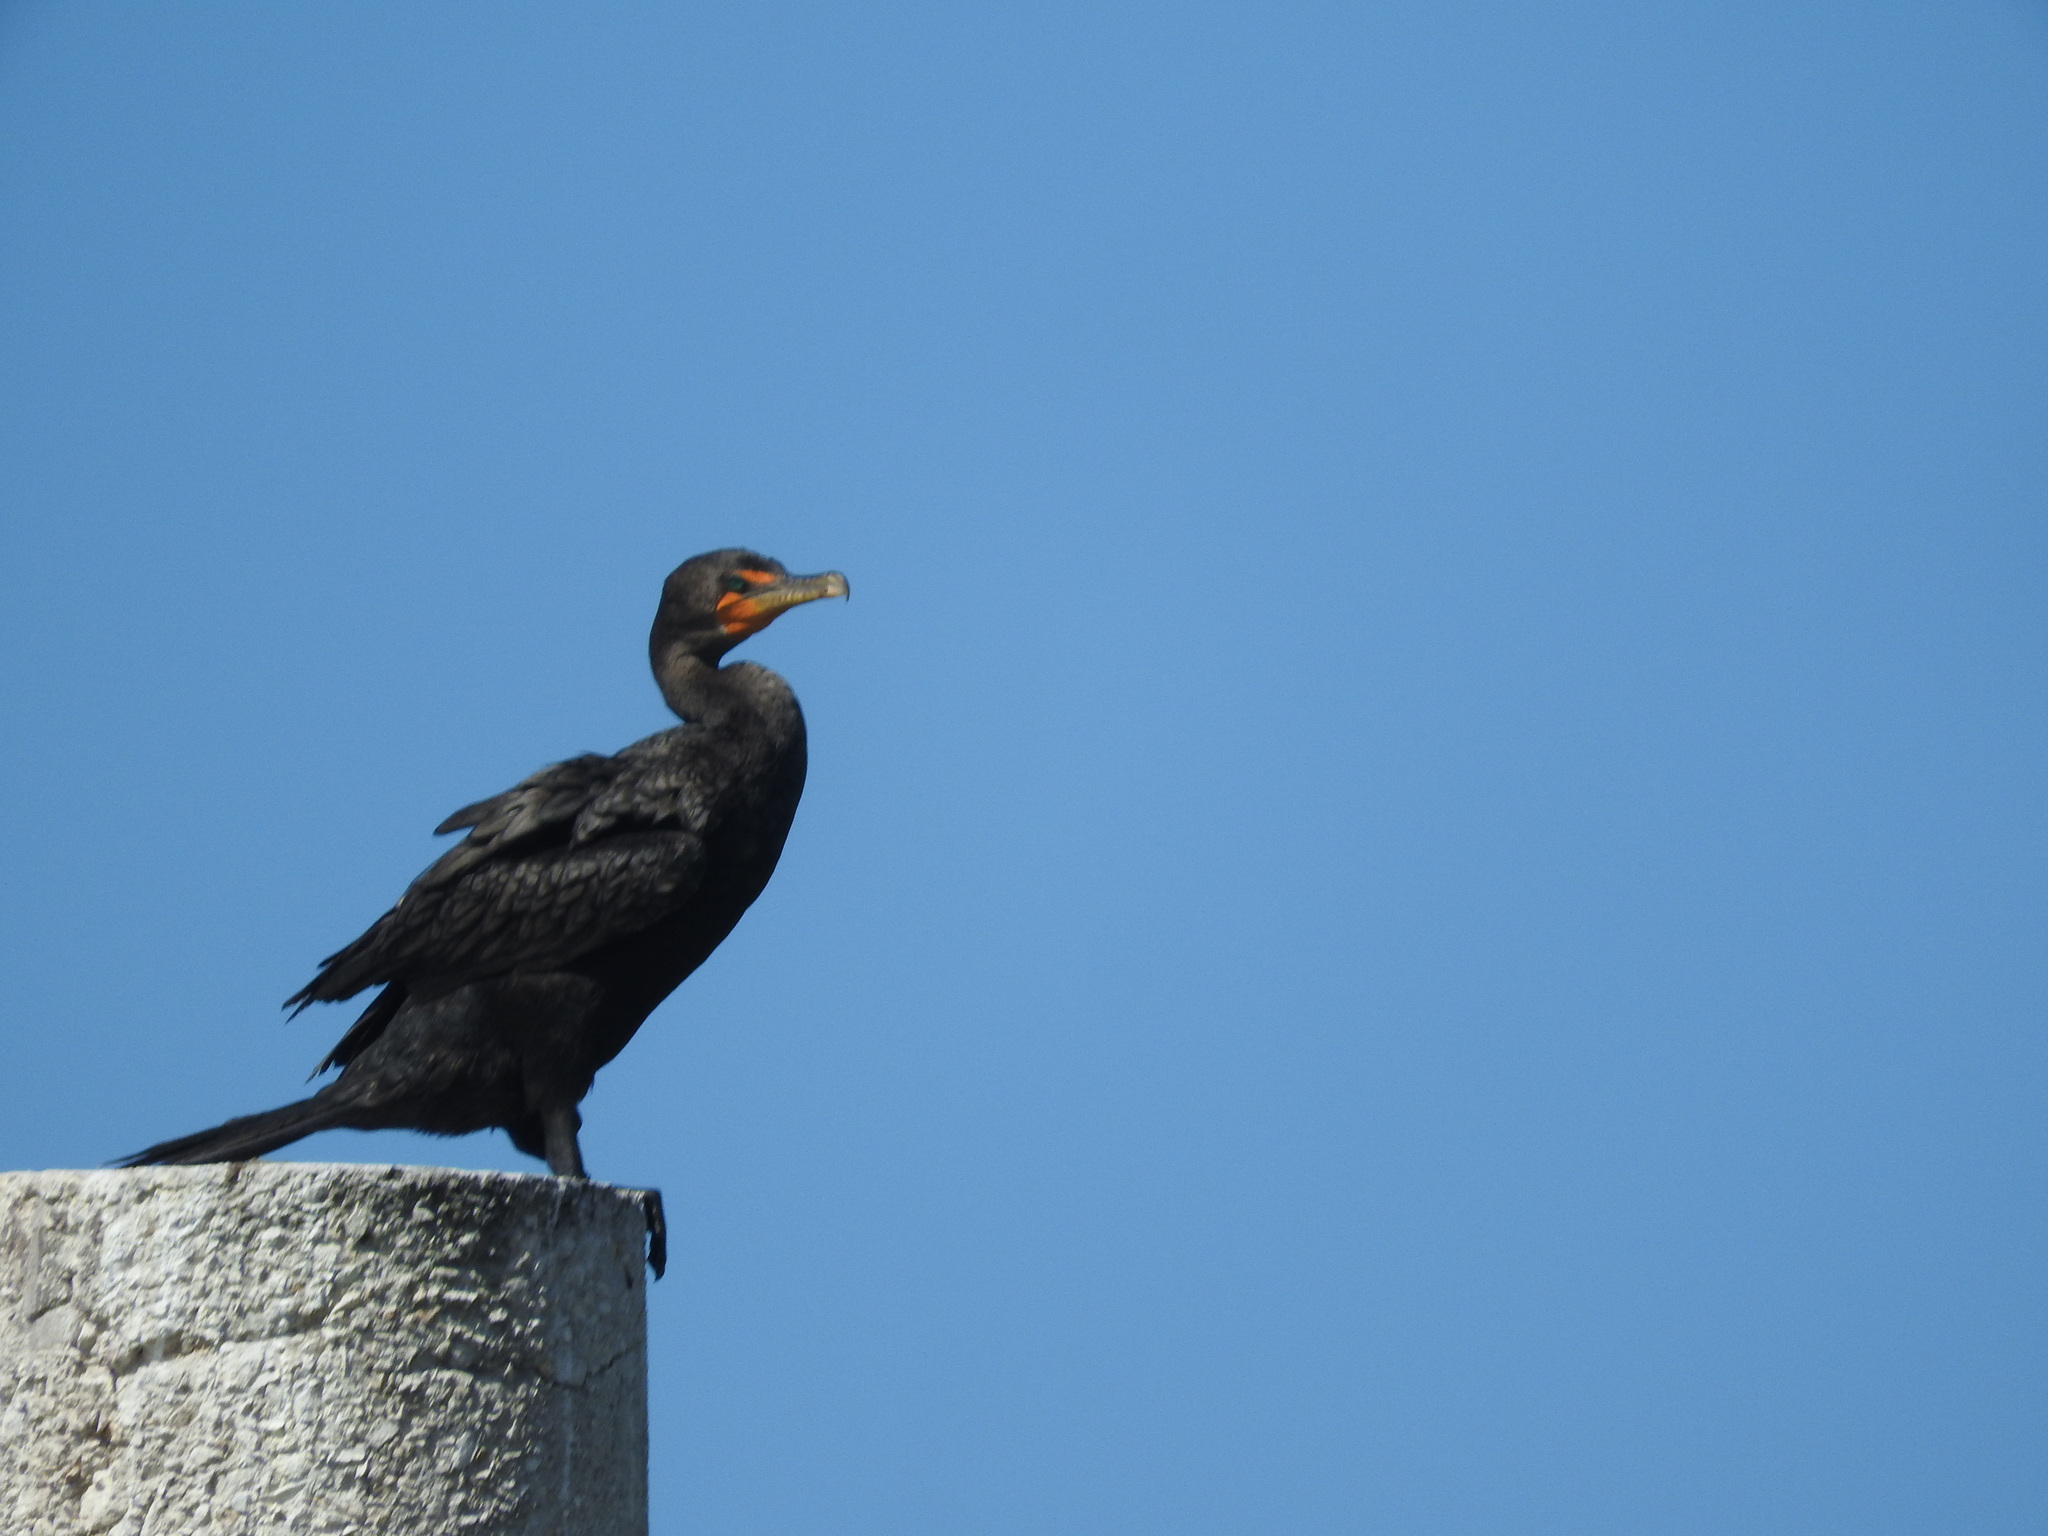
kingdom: Animalia
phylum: Chordata
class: Aves
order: Suliformes
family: Phalacrocoracidae
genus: Phalacrocorax
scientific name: Phalacrocorax auritus
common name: Double-crested cormorant
